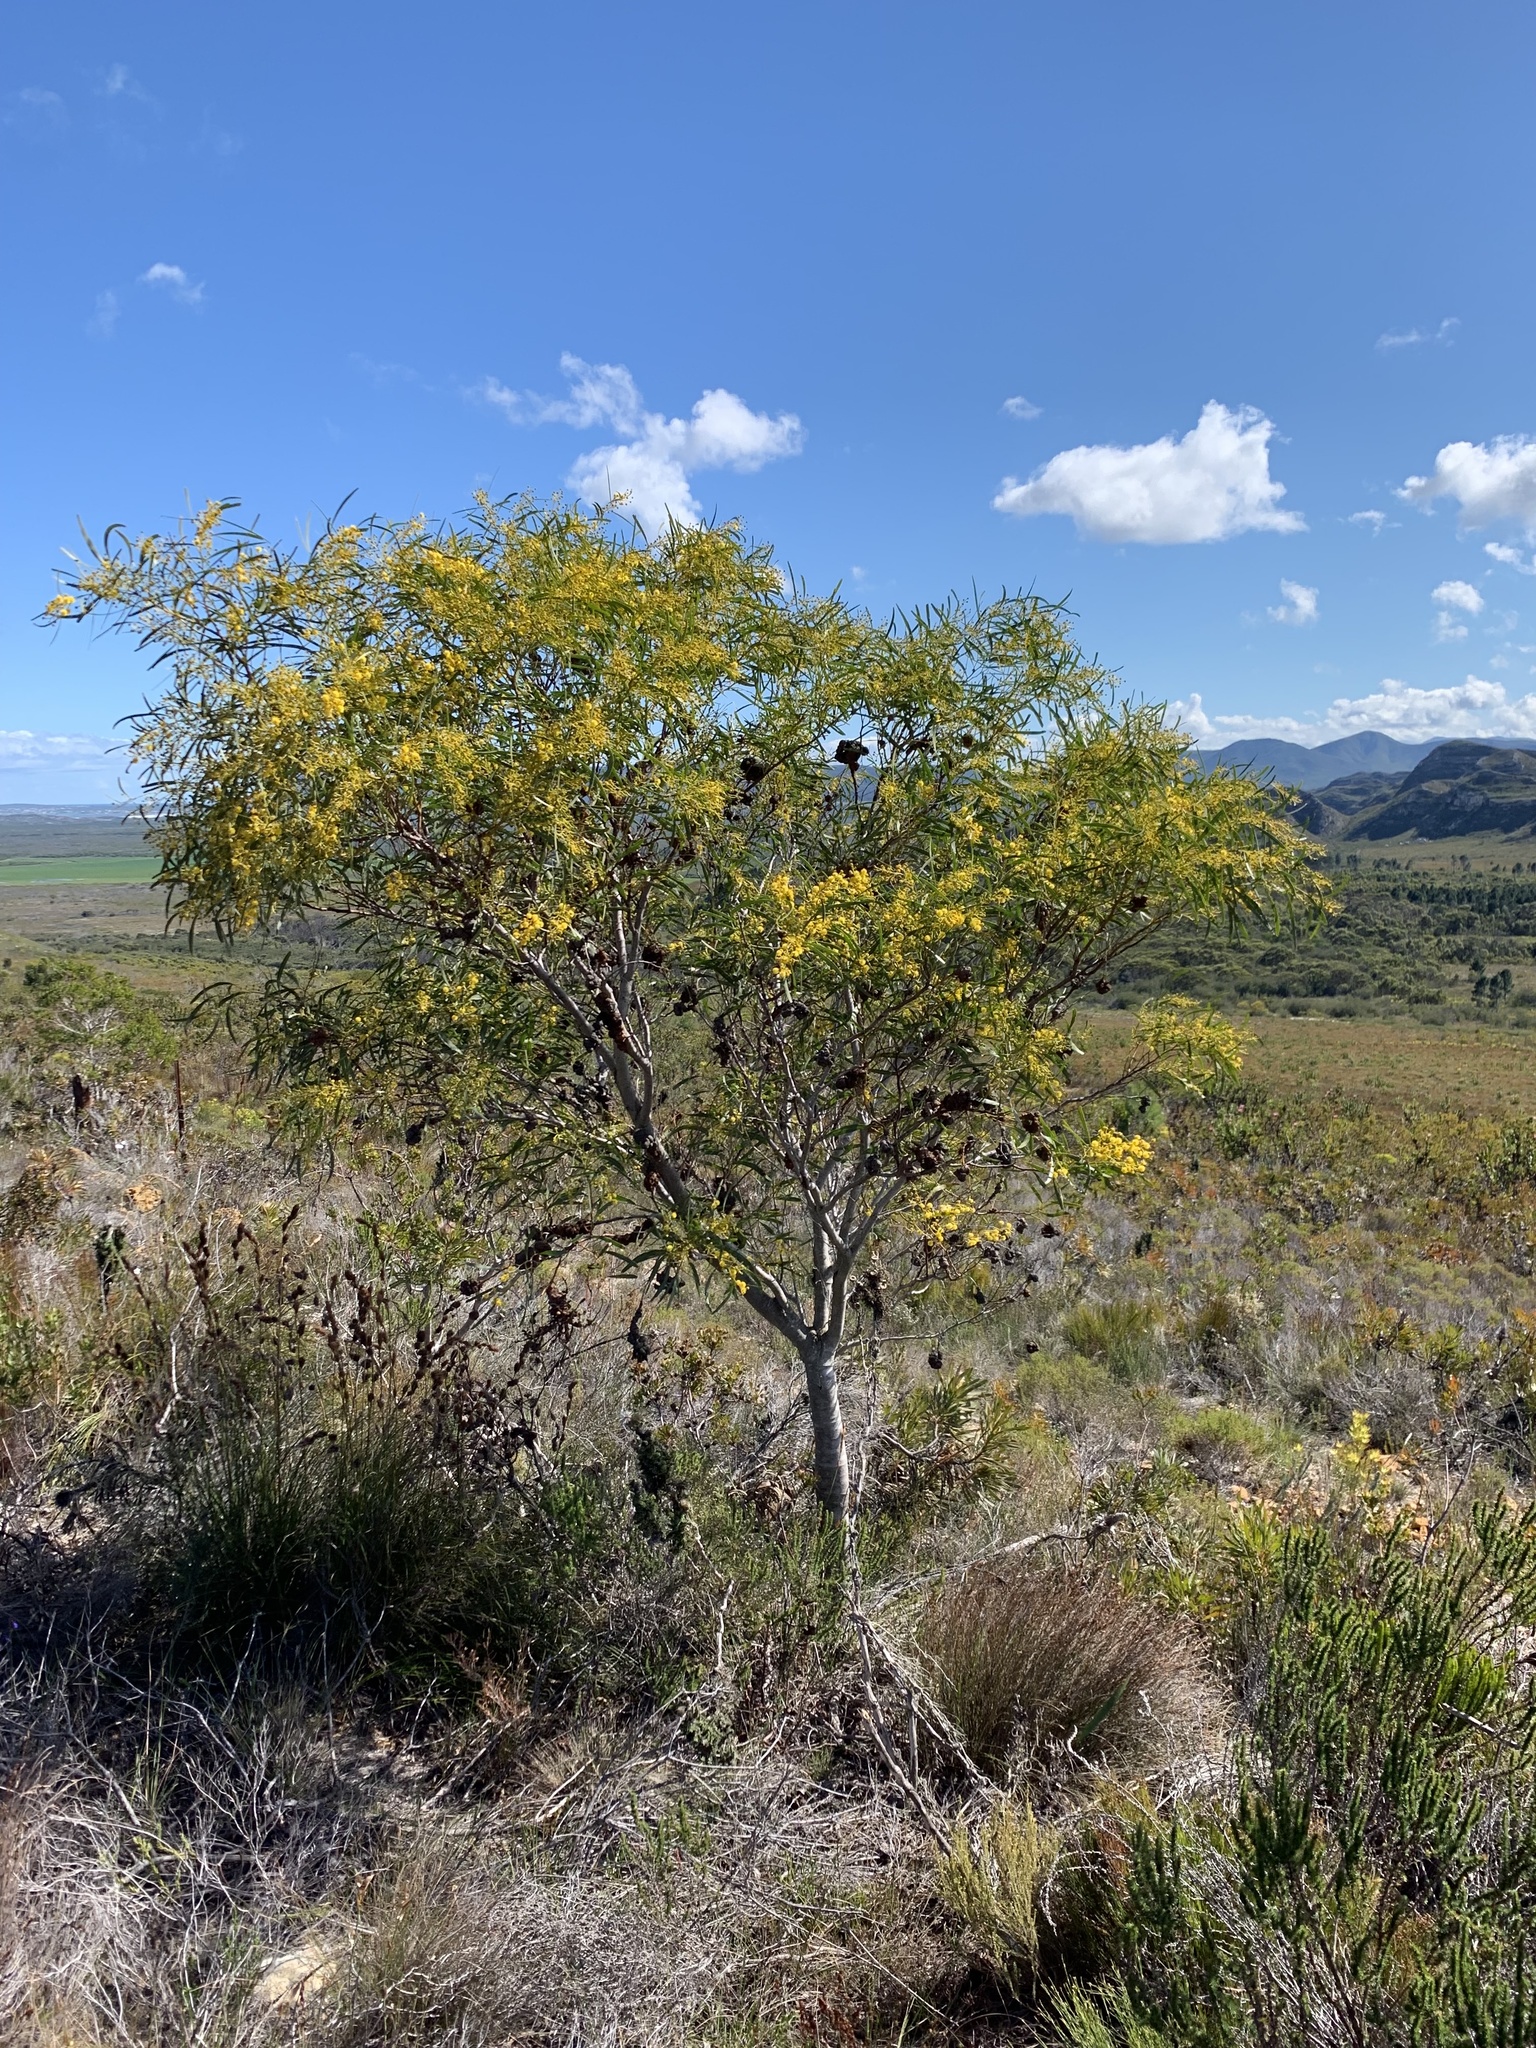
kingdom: Plantae
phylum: Tracheophyta
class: Magnoliopsida
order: Fabales
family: Fabaceae
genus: Acacia
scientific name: Acacia saligna
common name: Orange wattle
